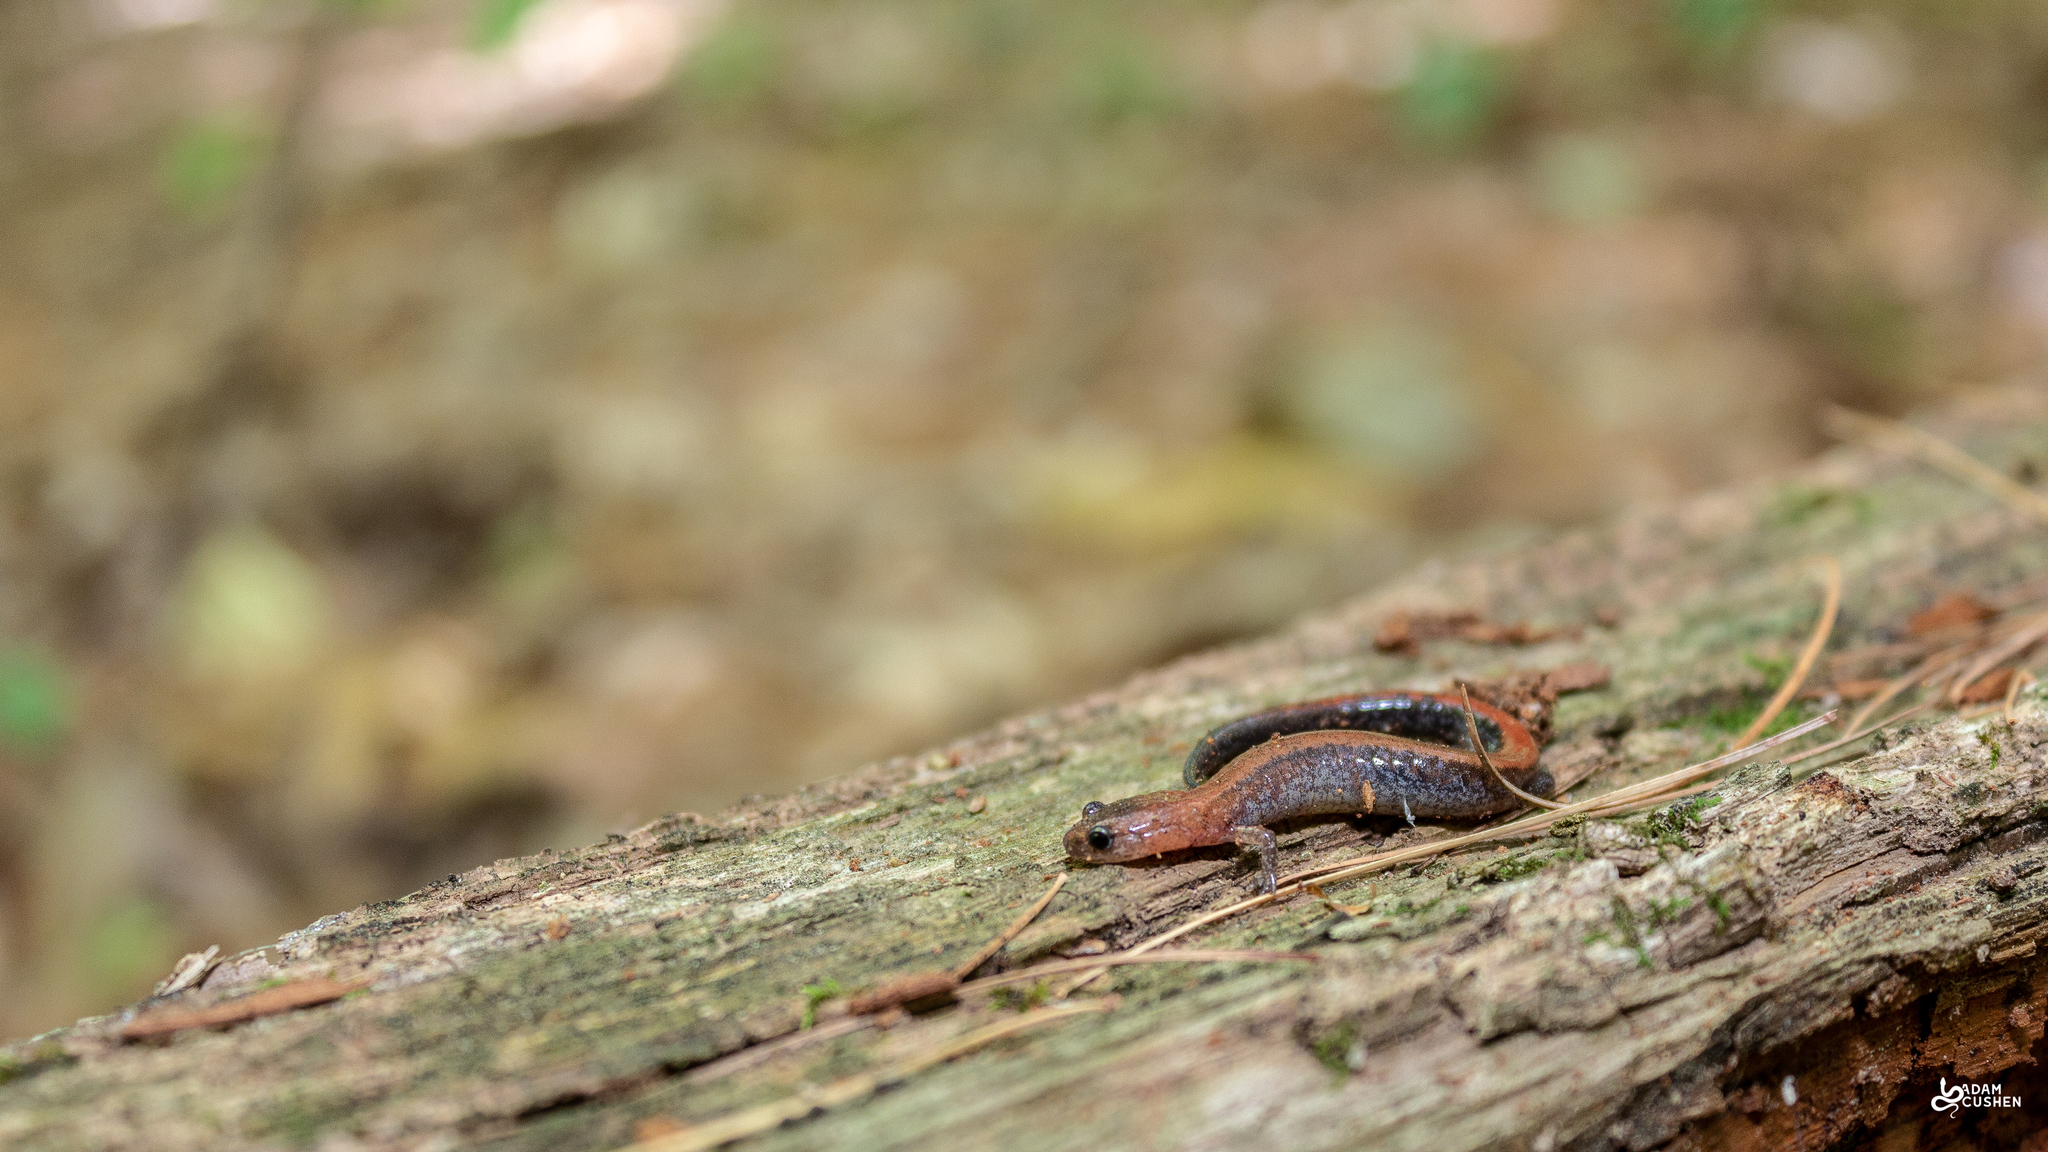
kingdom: Animalia
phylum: Chordata
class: Amphibia
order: Caudata
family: Plethodontidae
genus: Plethodon
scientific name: Plethodon cinereus
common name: Redback salamander
